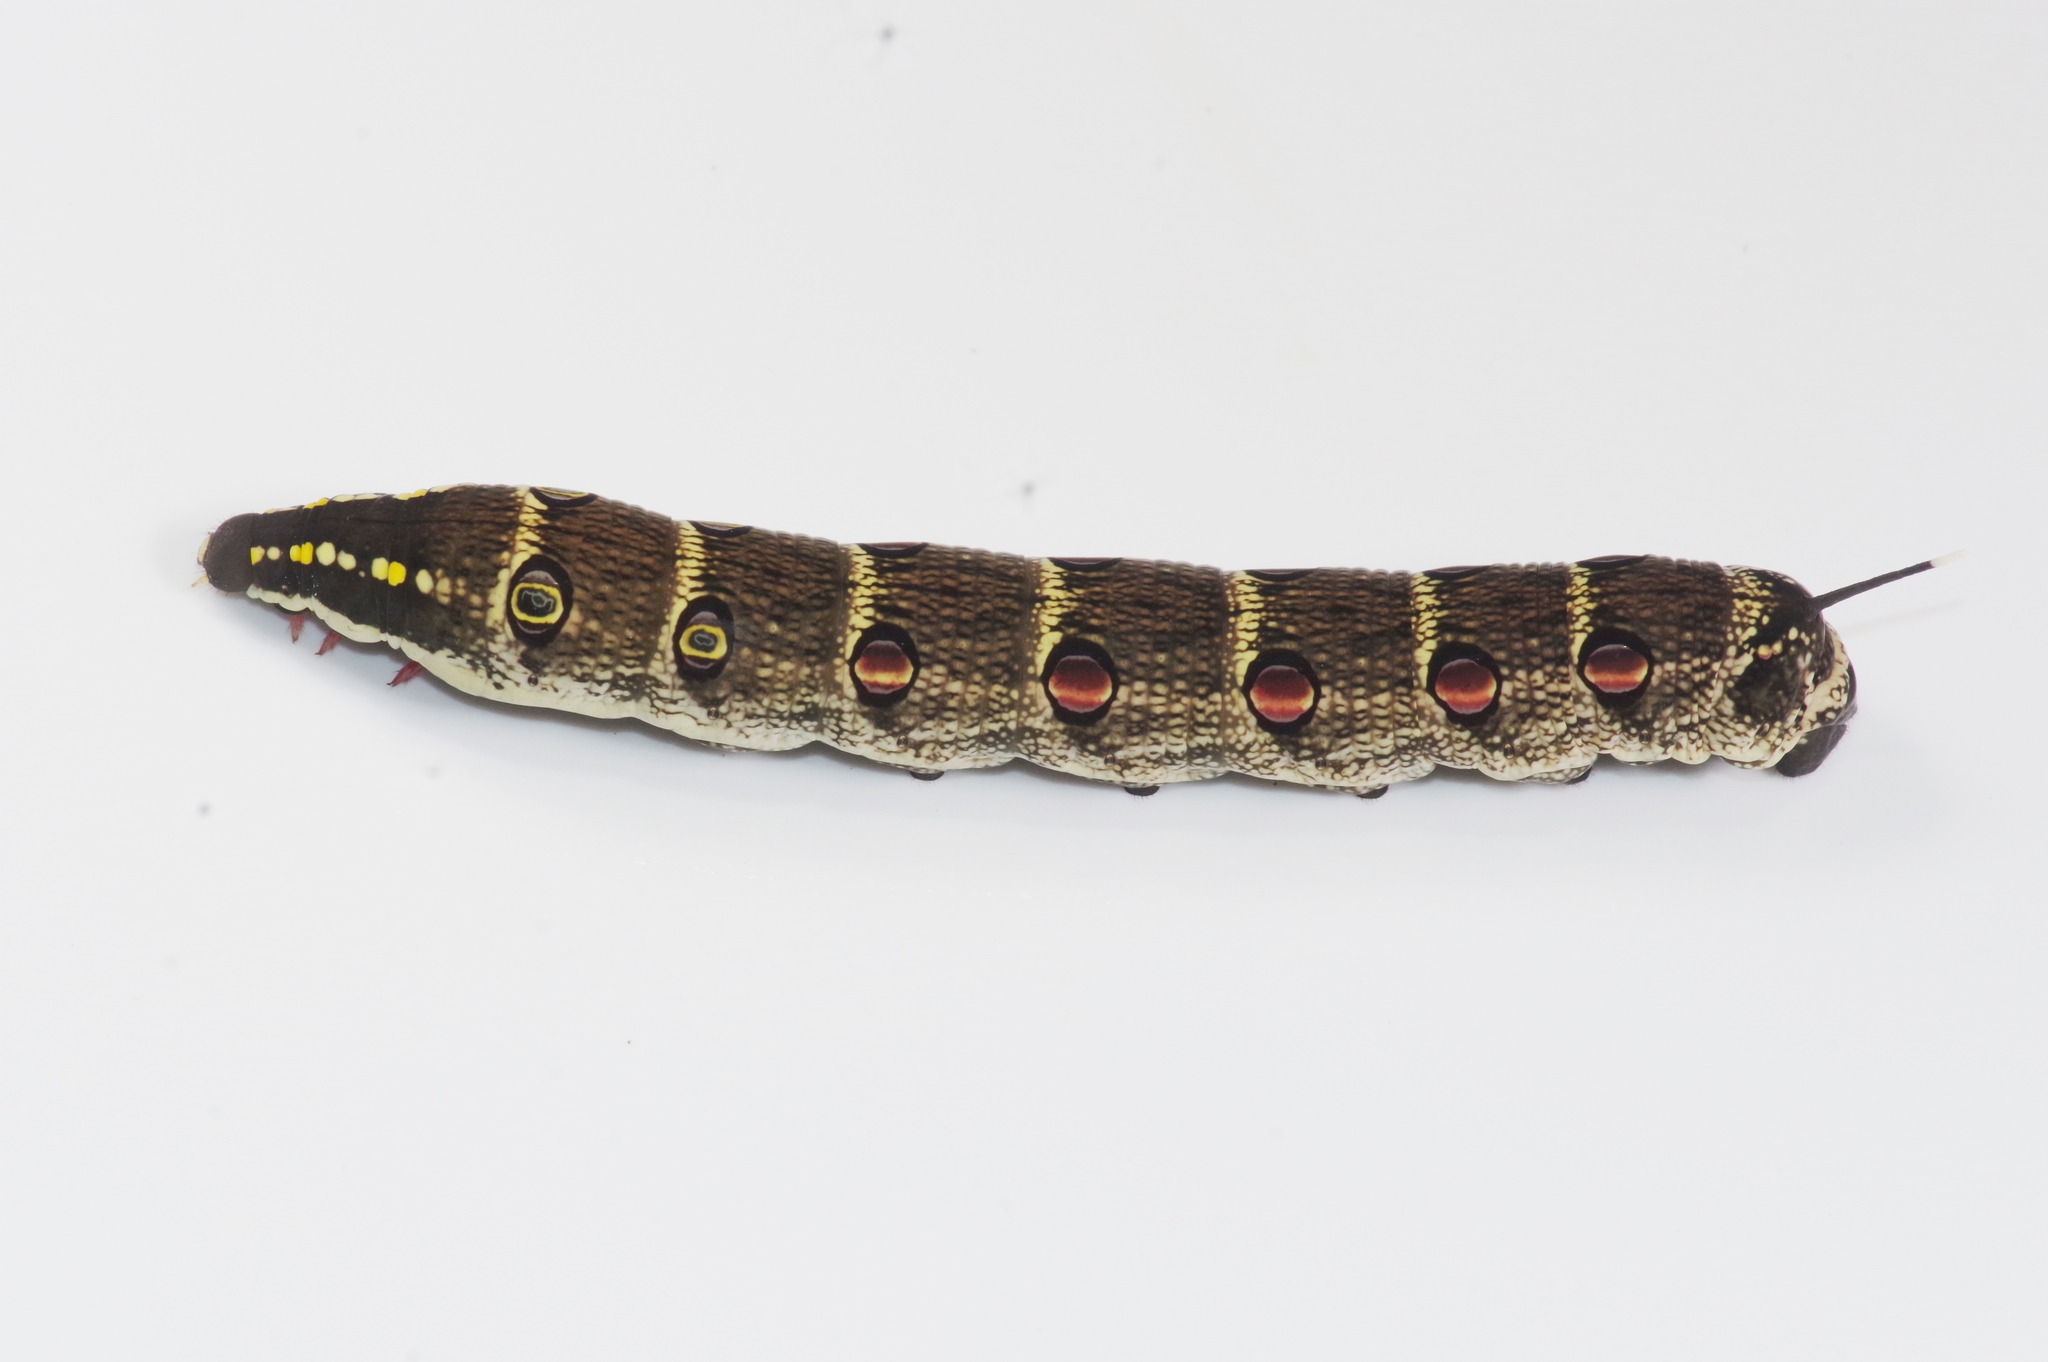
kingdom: Animalia
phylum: Arthropoda
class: Insecta
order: Lepidoptera
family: Sphingidae
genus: Theretra
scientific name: Theretra oldenlandiae
